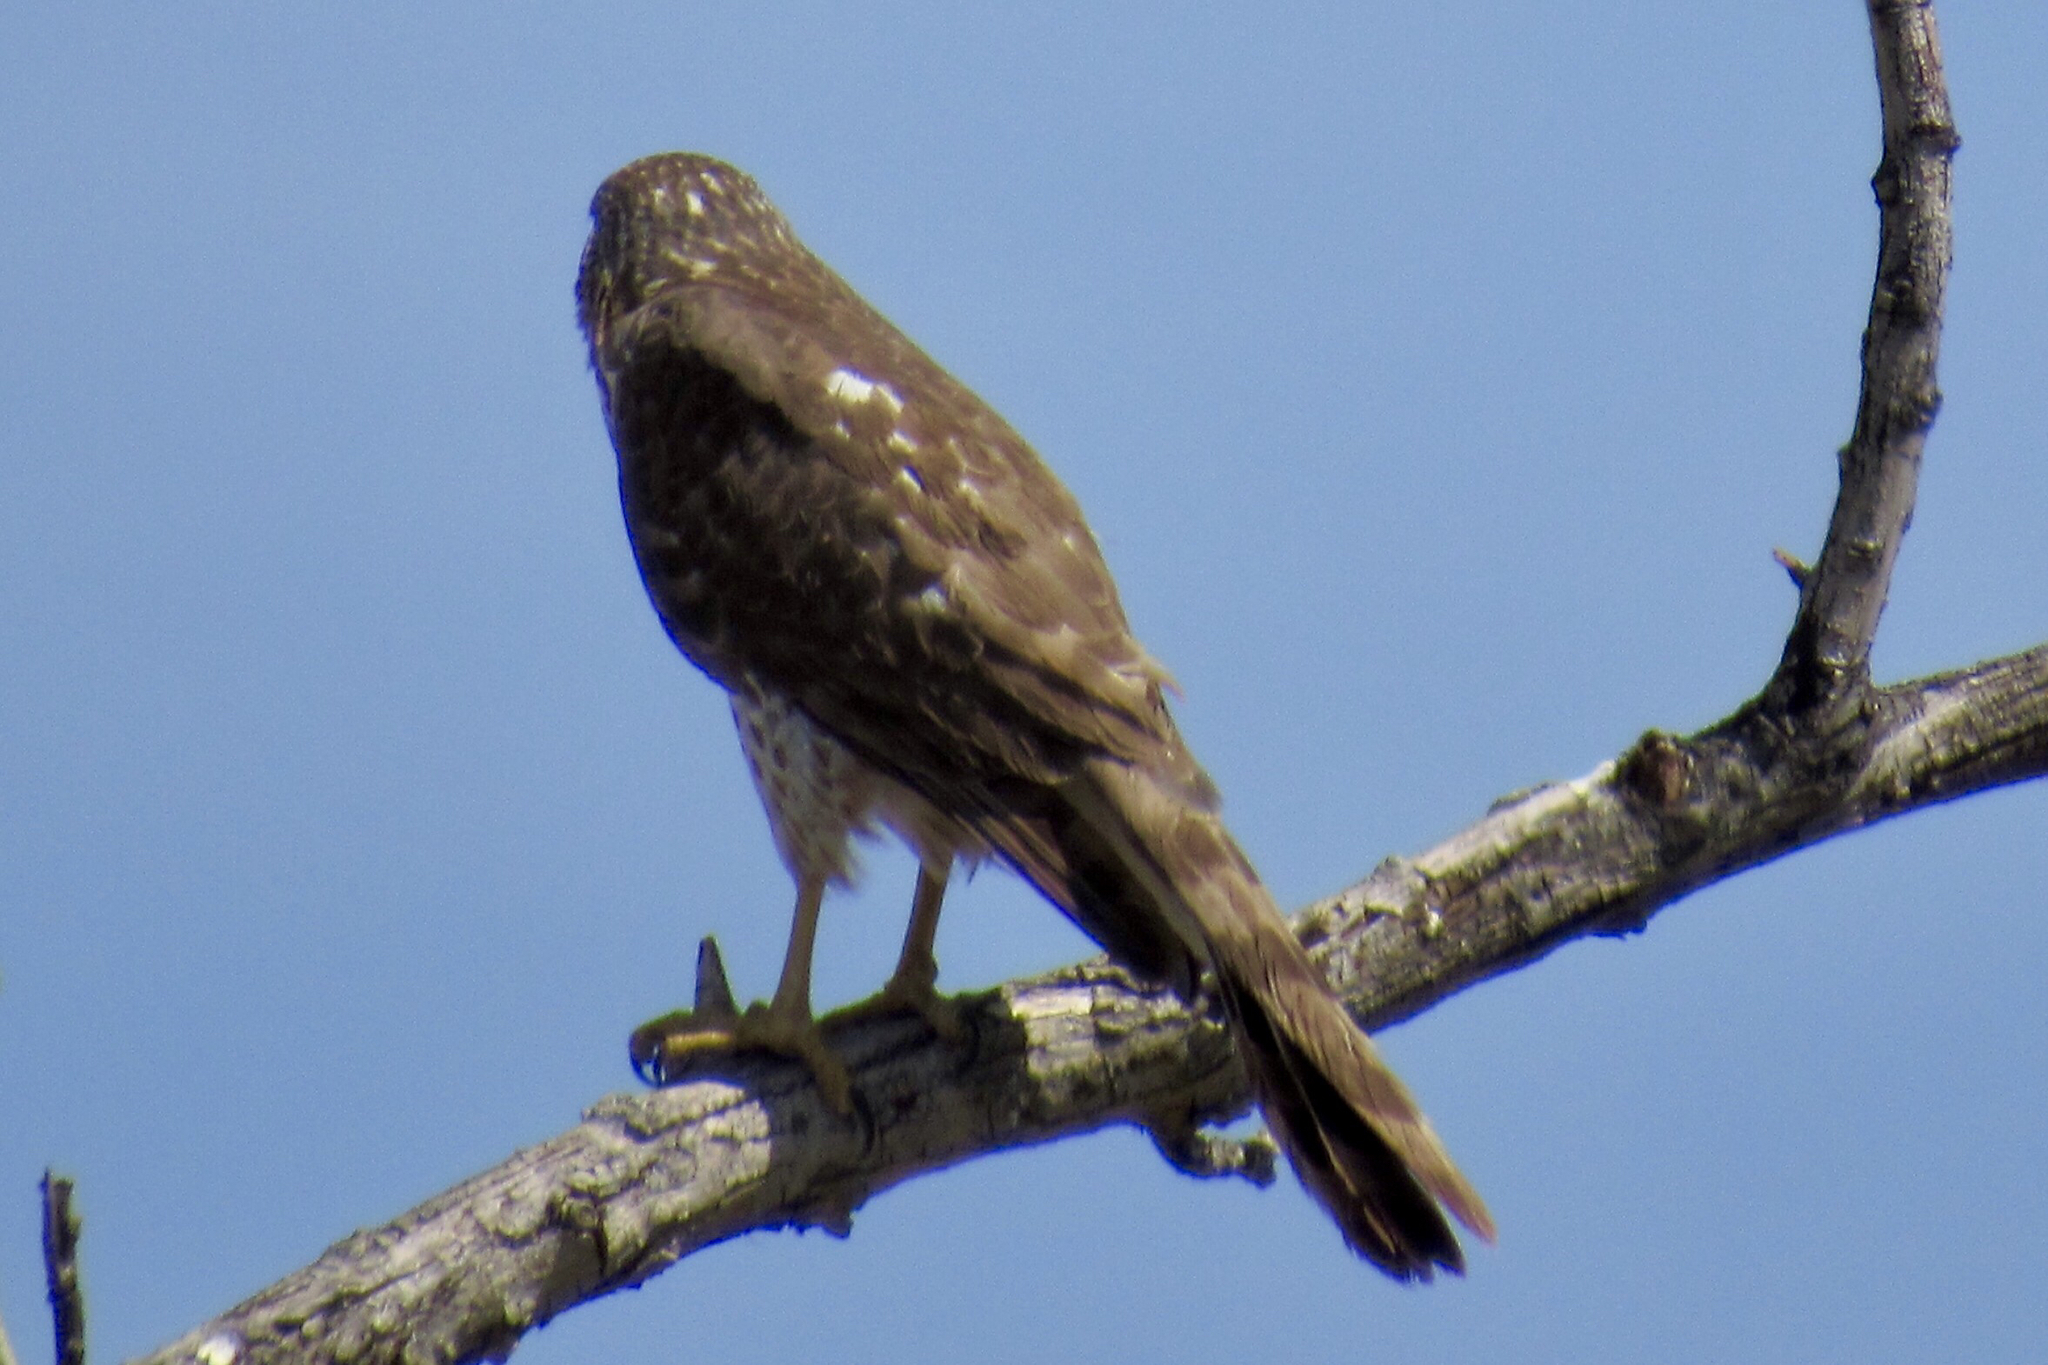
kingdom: Animalia
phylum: Chordata
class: Aves
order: Accipitriformes
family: Accipitridae
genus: Accipiter
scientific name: Accipiter cooperii
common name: Cooper's hawk
